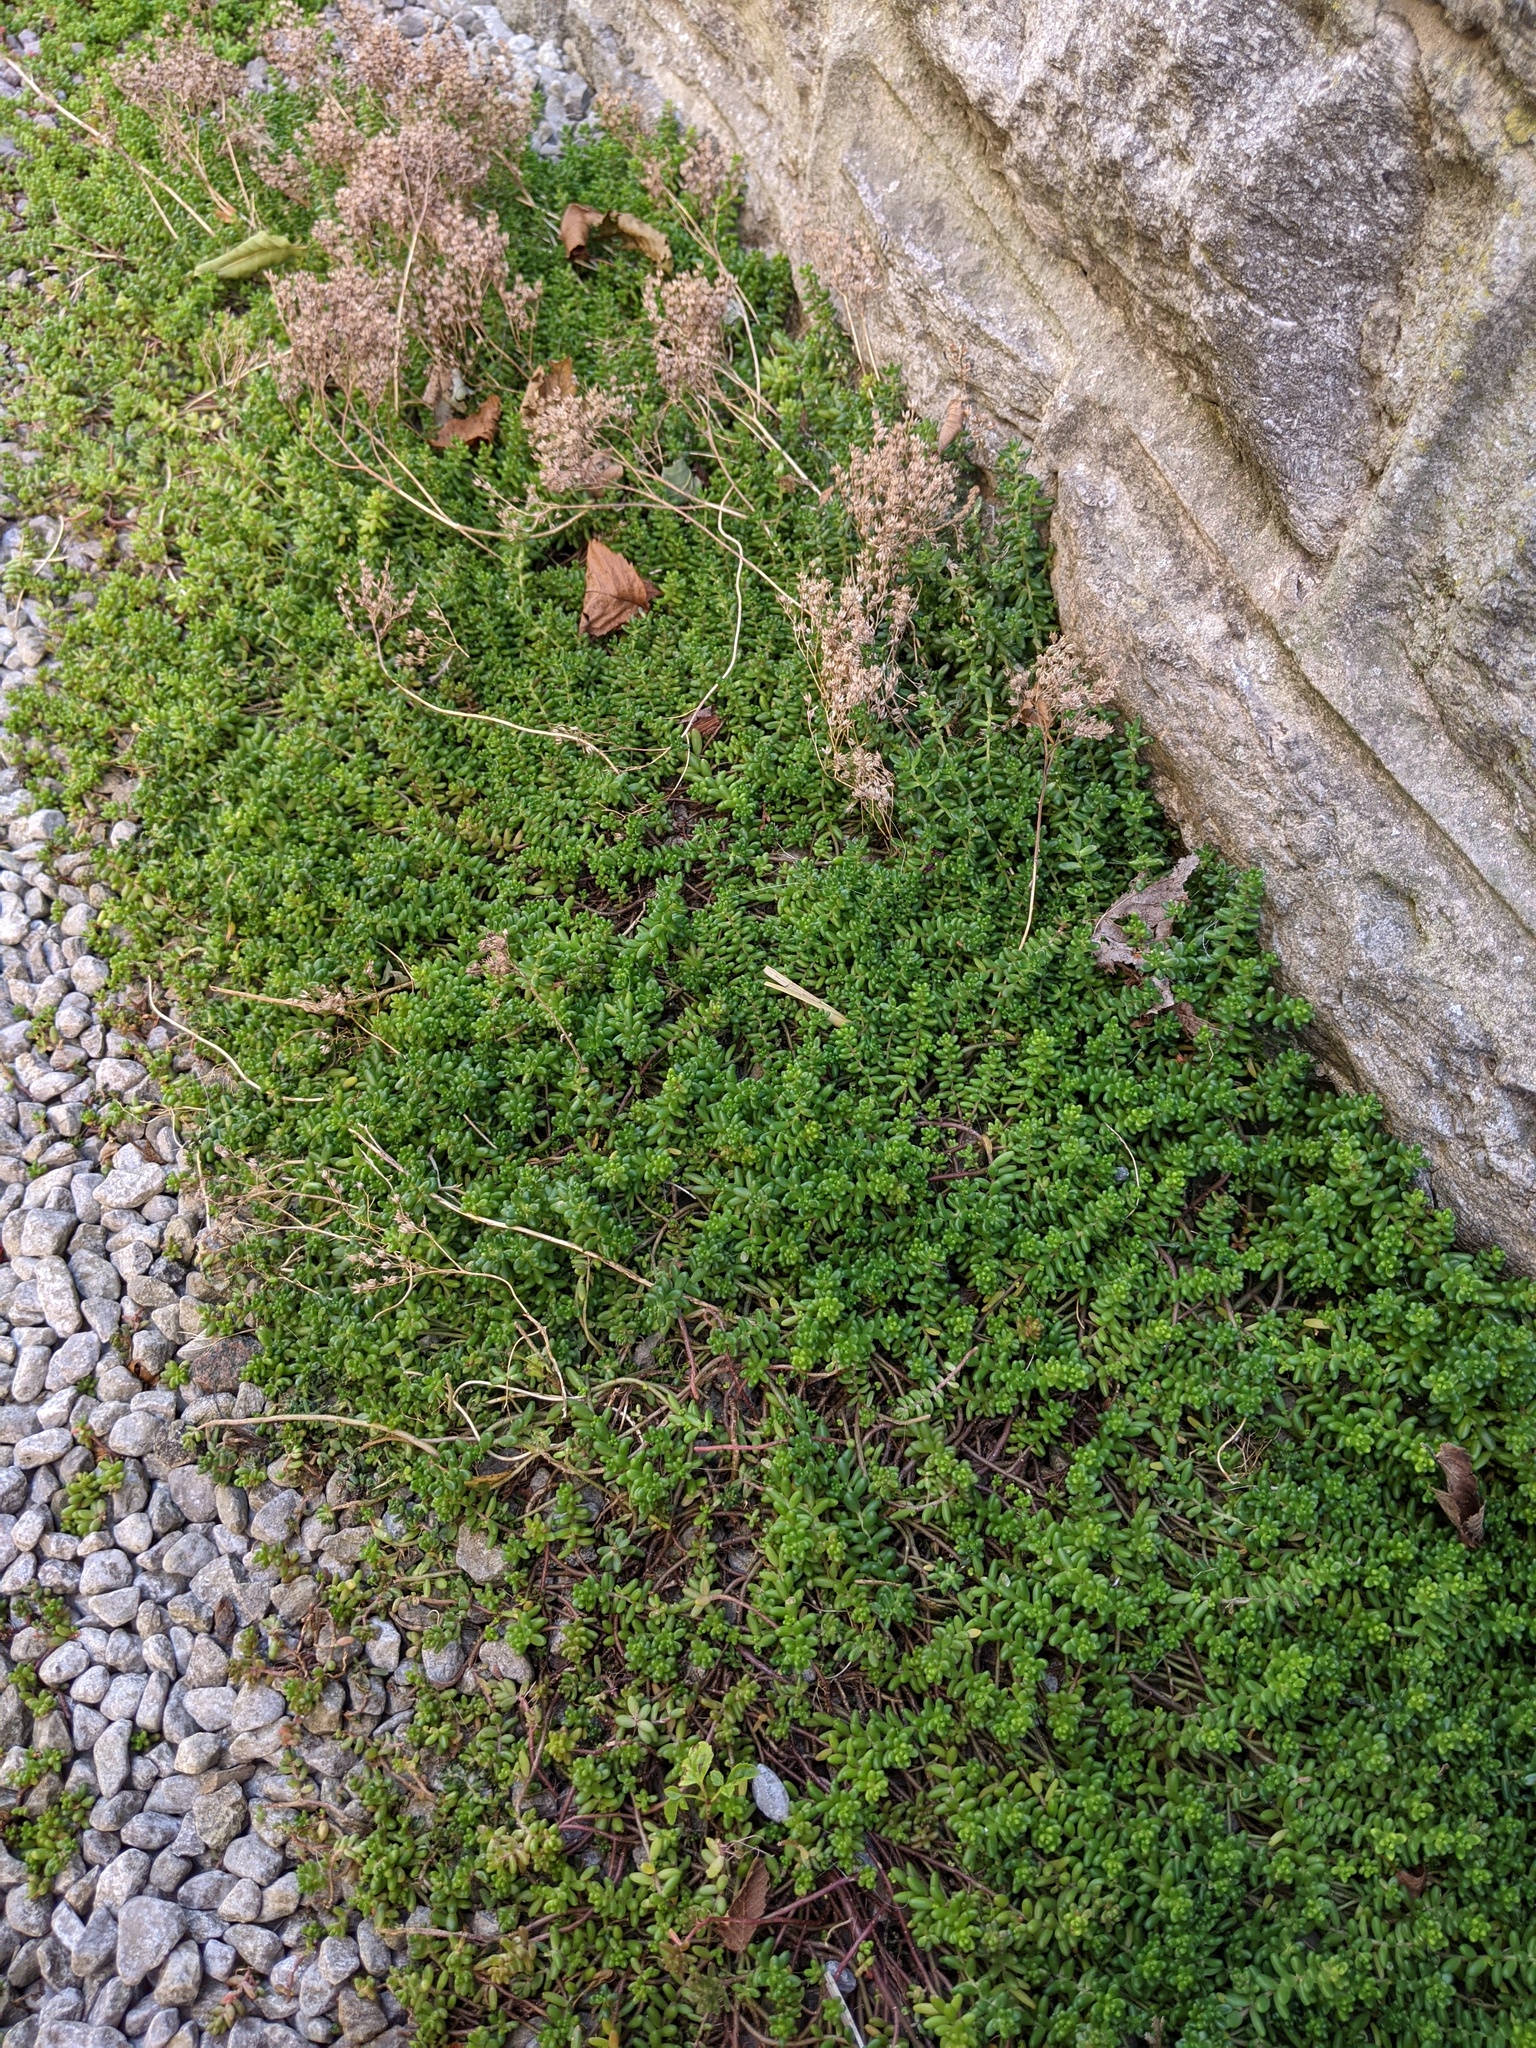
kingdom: Plantae
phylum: Tracheophyta
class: Magnoliopsida
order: Saxifragales
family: Crassulaceae
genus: Sedum
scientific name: Sedum album
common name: White stonecrop
